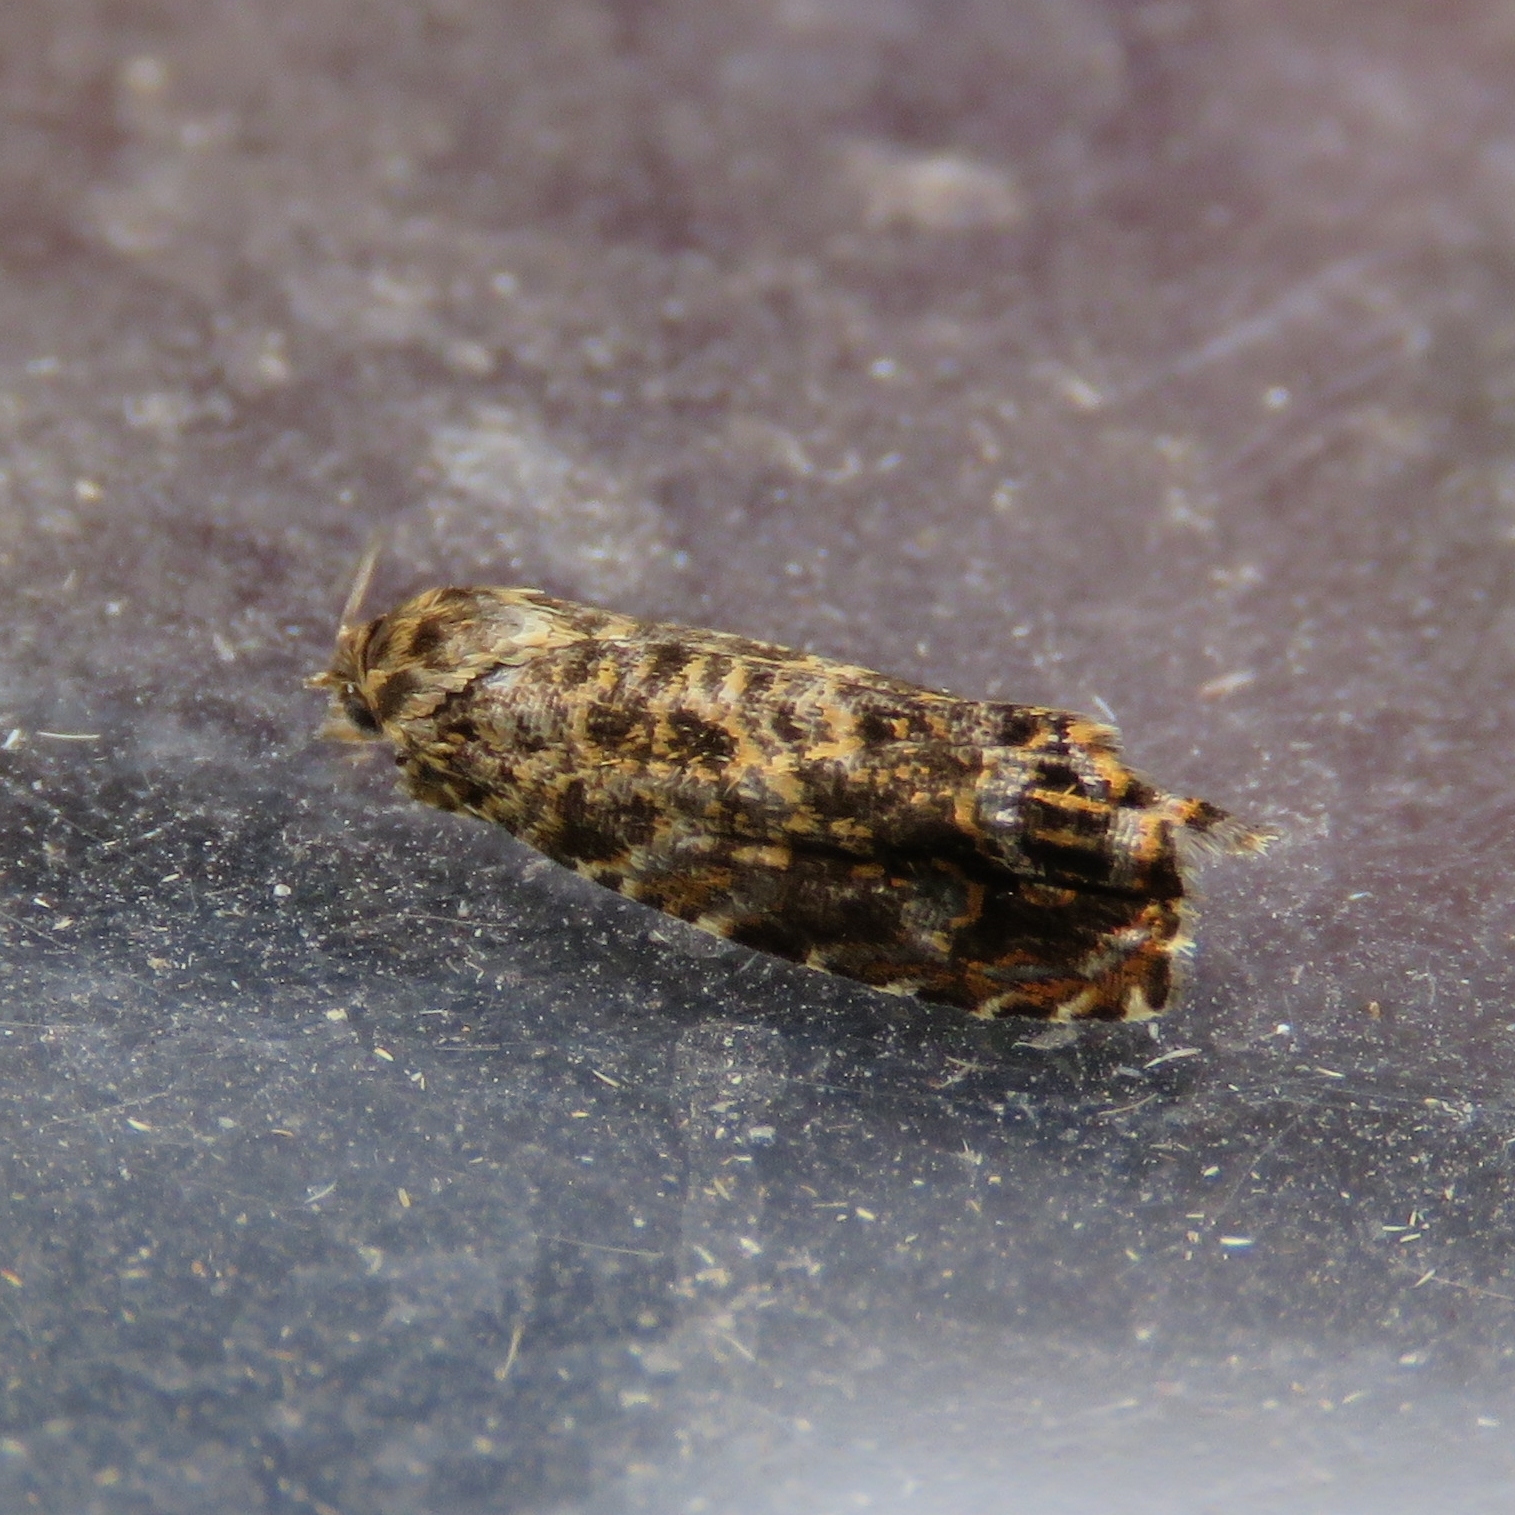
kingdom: Animalia
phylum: Arthropoda
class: Insecta
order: Lepidoptera
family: Tortricidae
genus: Enarmonia
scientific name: Enarmonia formosana
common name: Cherry bark tortrix
